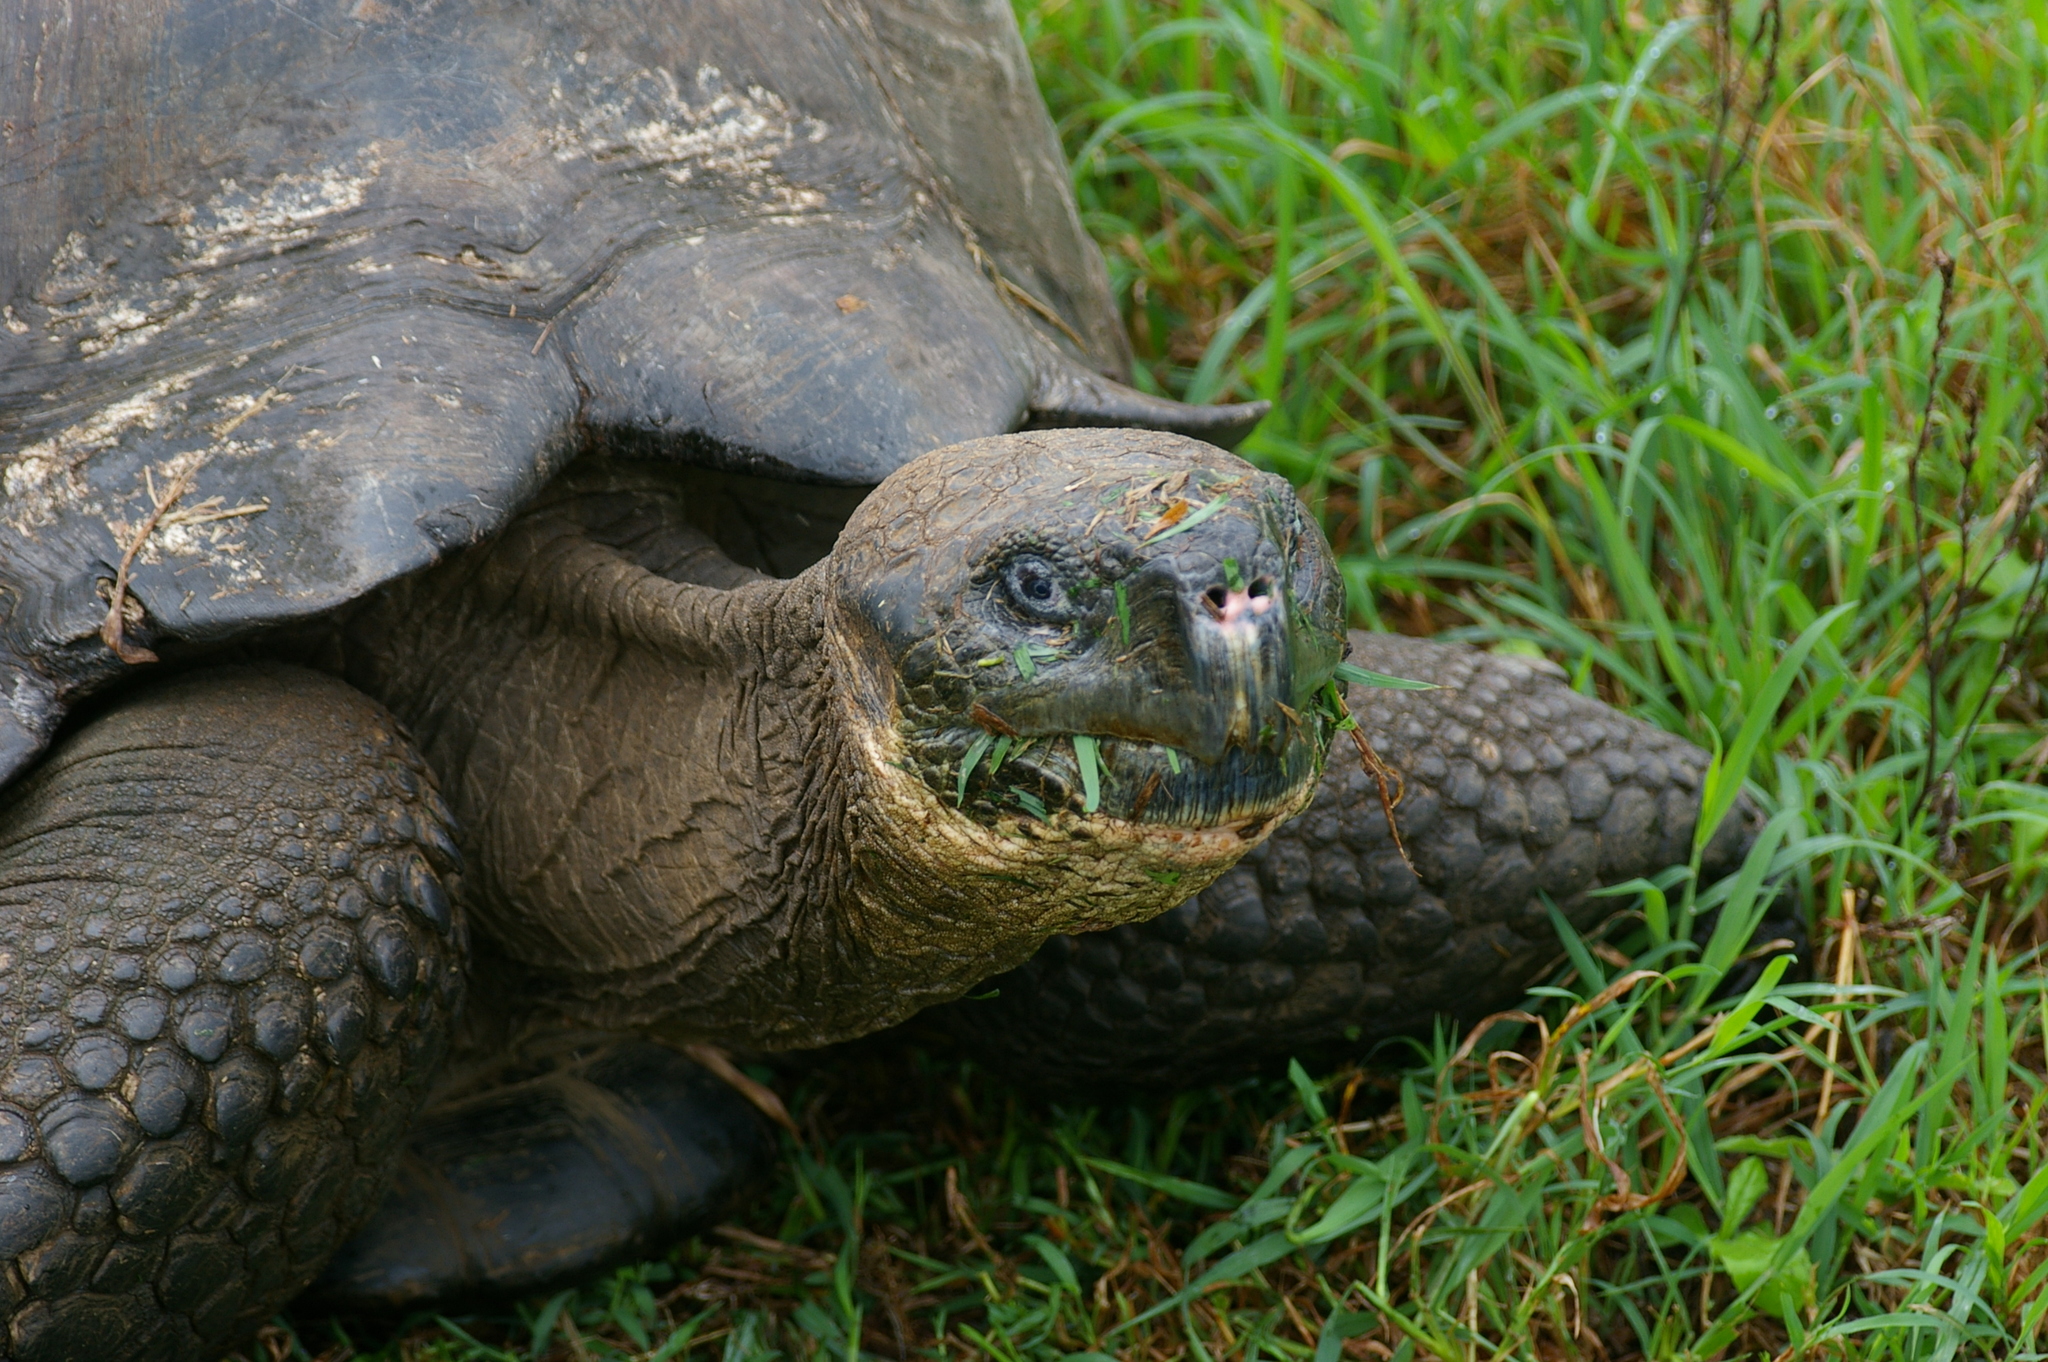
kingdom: Animalia
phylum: Chordata
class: Testudines
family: Testudinidae
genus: Chelonoidis
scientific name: Chelonoidis porteri
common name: Indefatigable island giant tortoise
